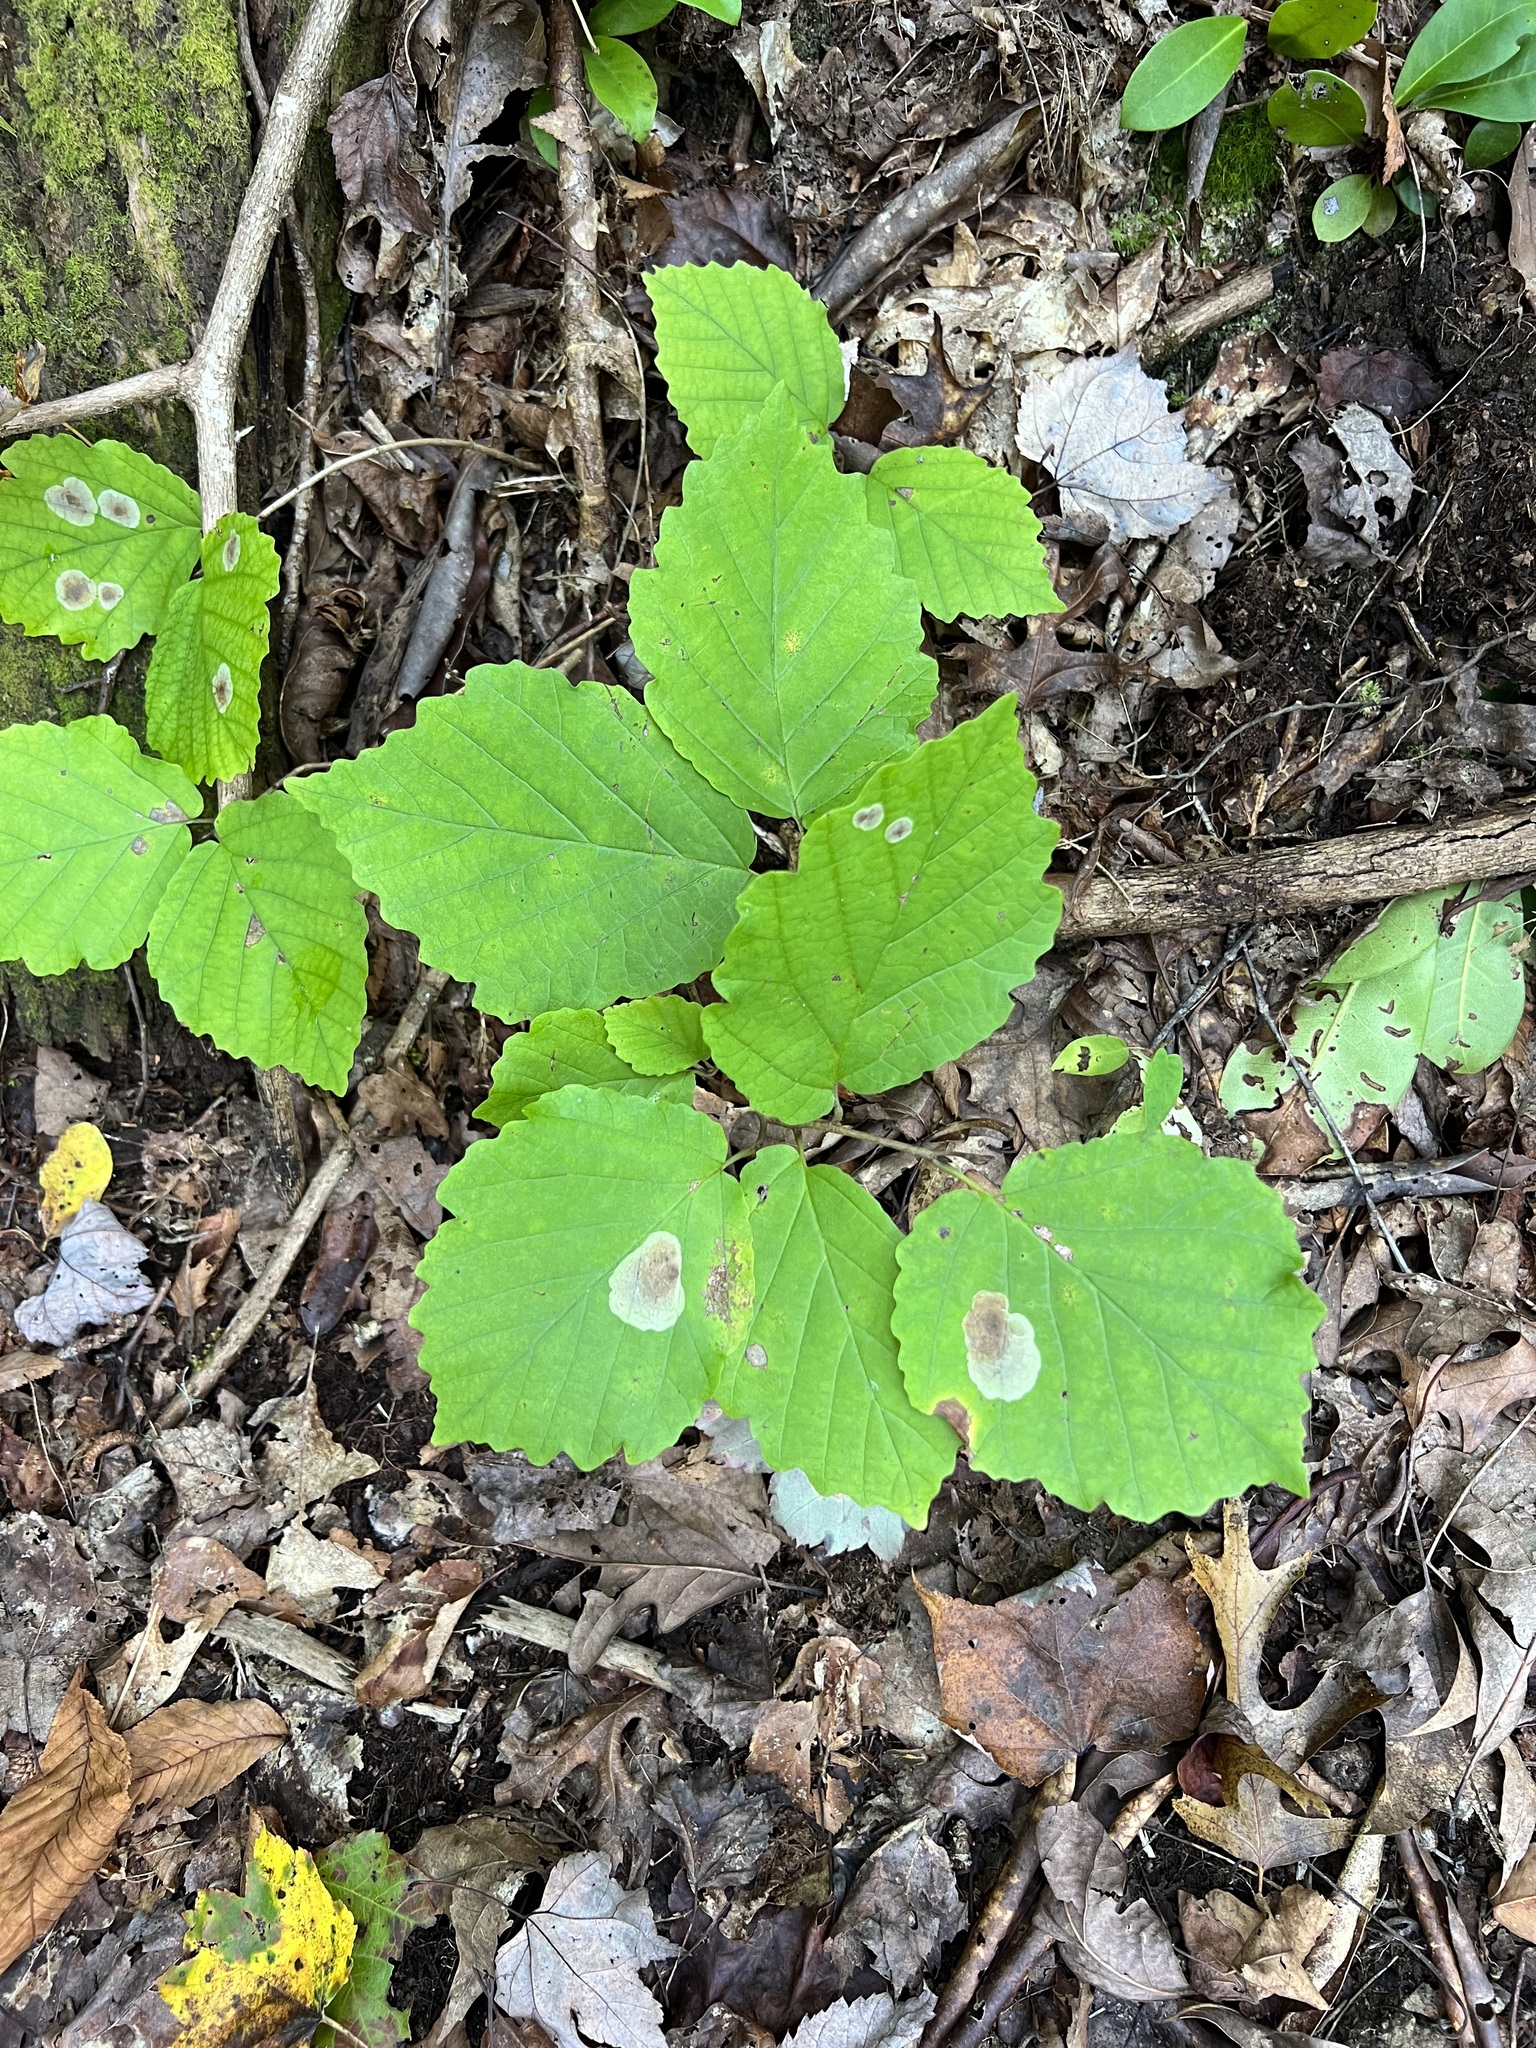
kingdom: Plantae
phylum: Tracheophyta
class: Magnoliopsida
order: Saxifragales
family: Hamamelidaceae
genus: Hamamelis
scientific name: Hamamelis virginiana
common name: Witch-hazel
